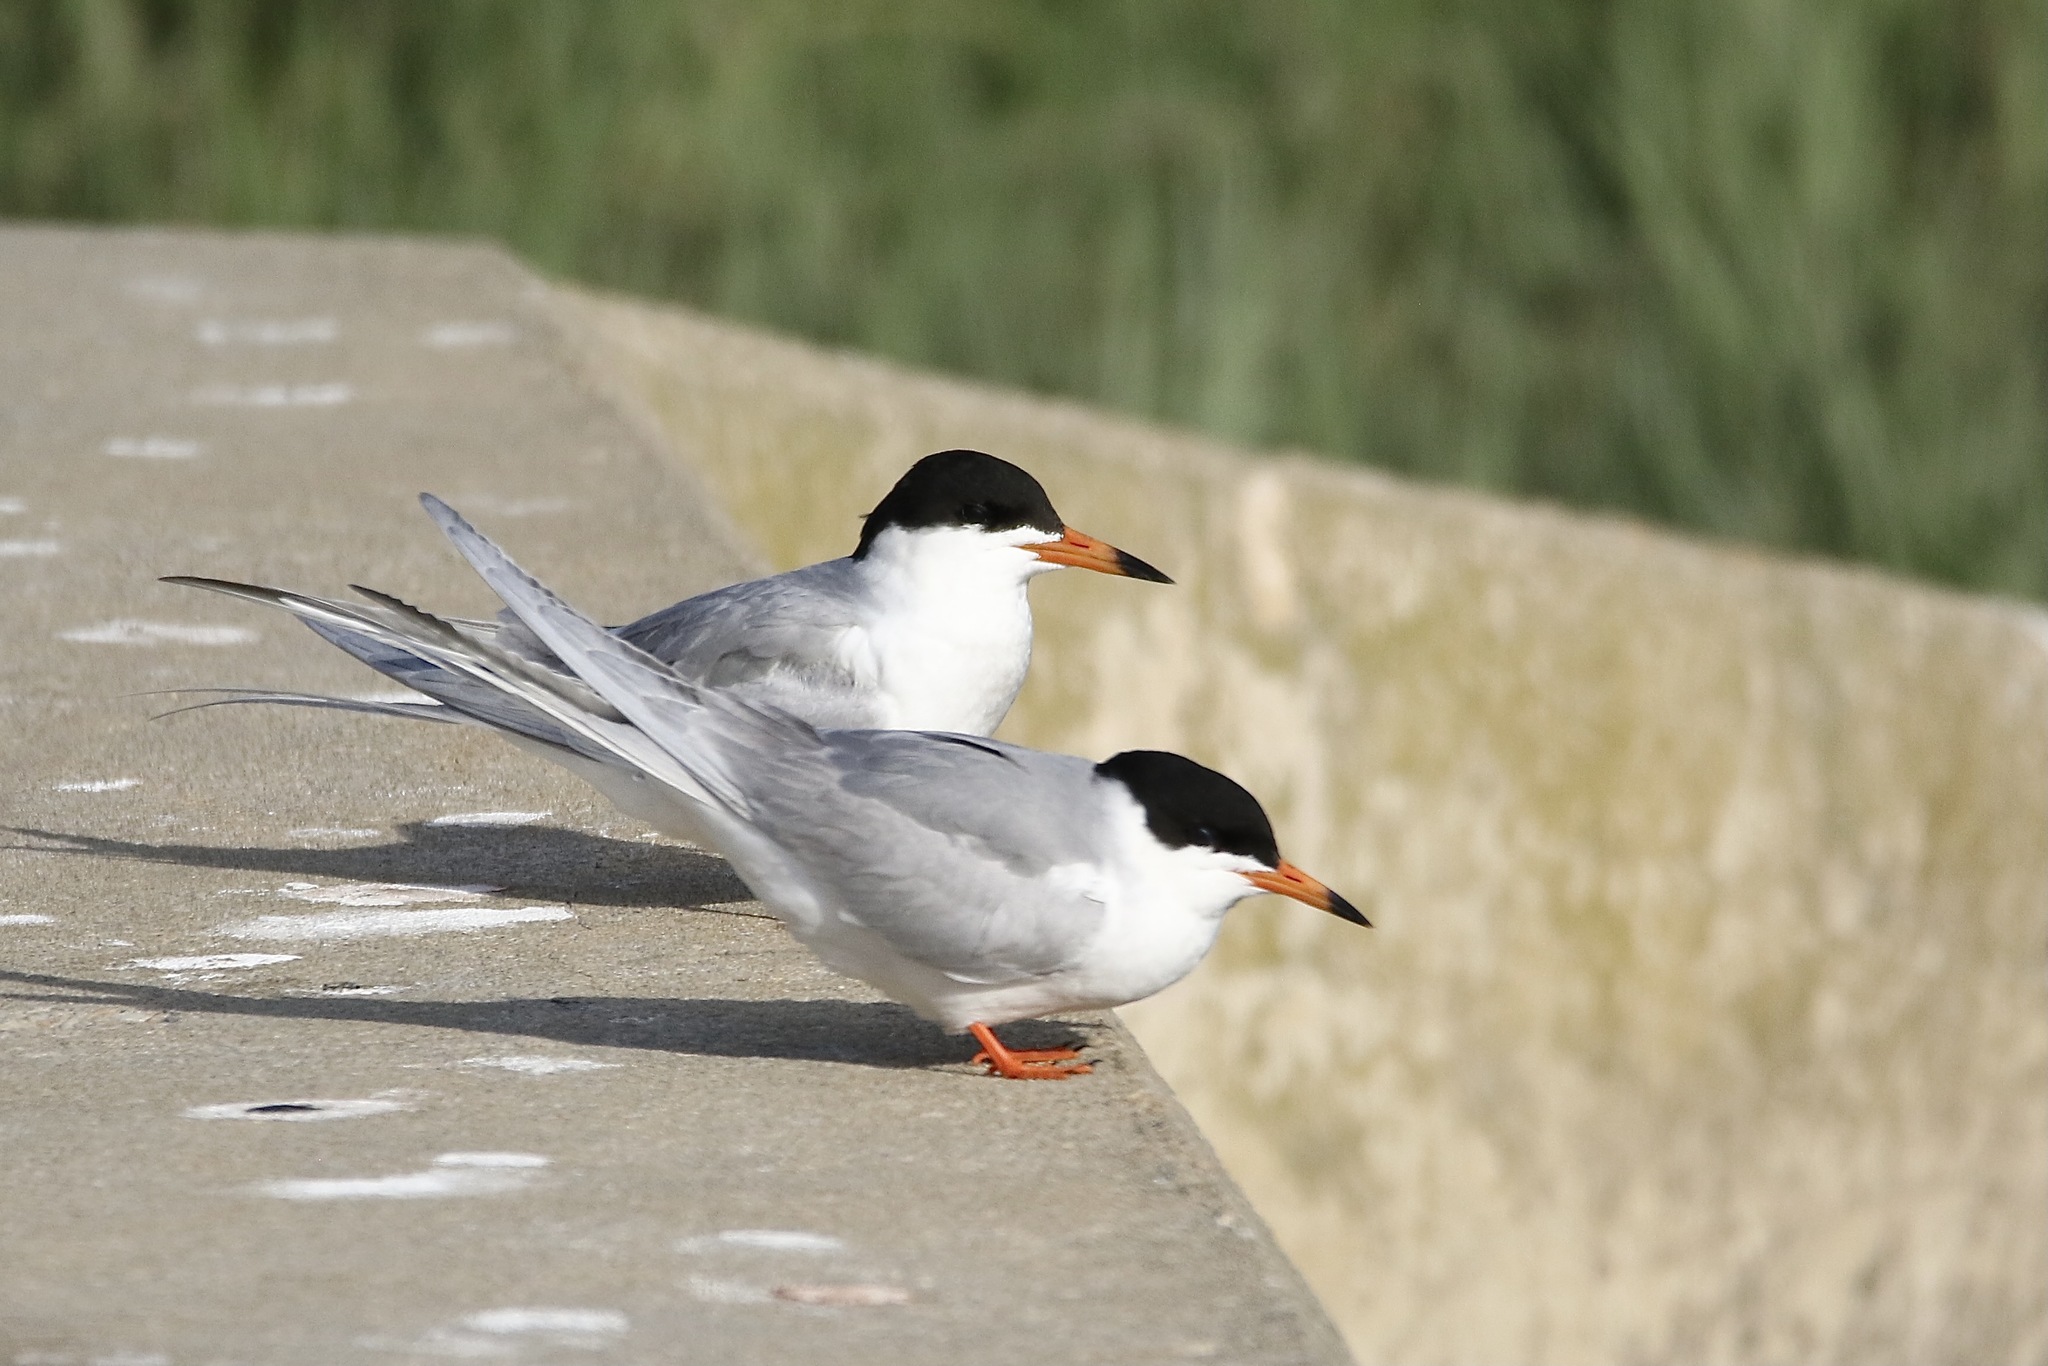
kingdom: Animalia
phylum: Chordata
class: Aves
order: Charadriiformes
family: Laridae
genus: Sterna
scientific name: Sterna forsteri
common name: Forster's tern
